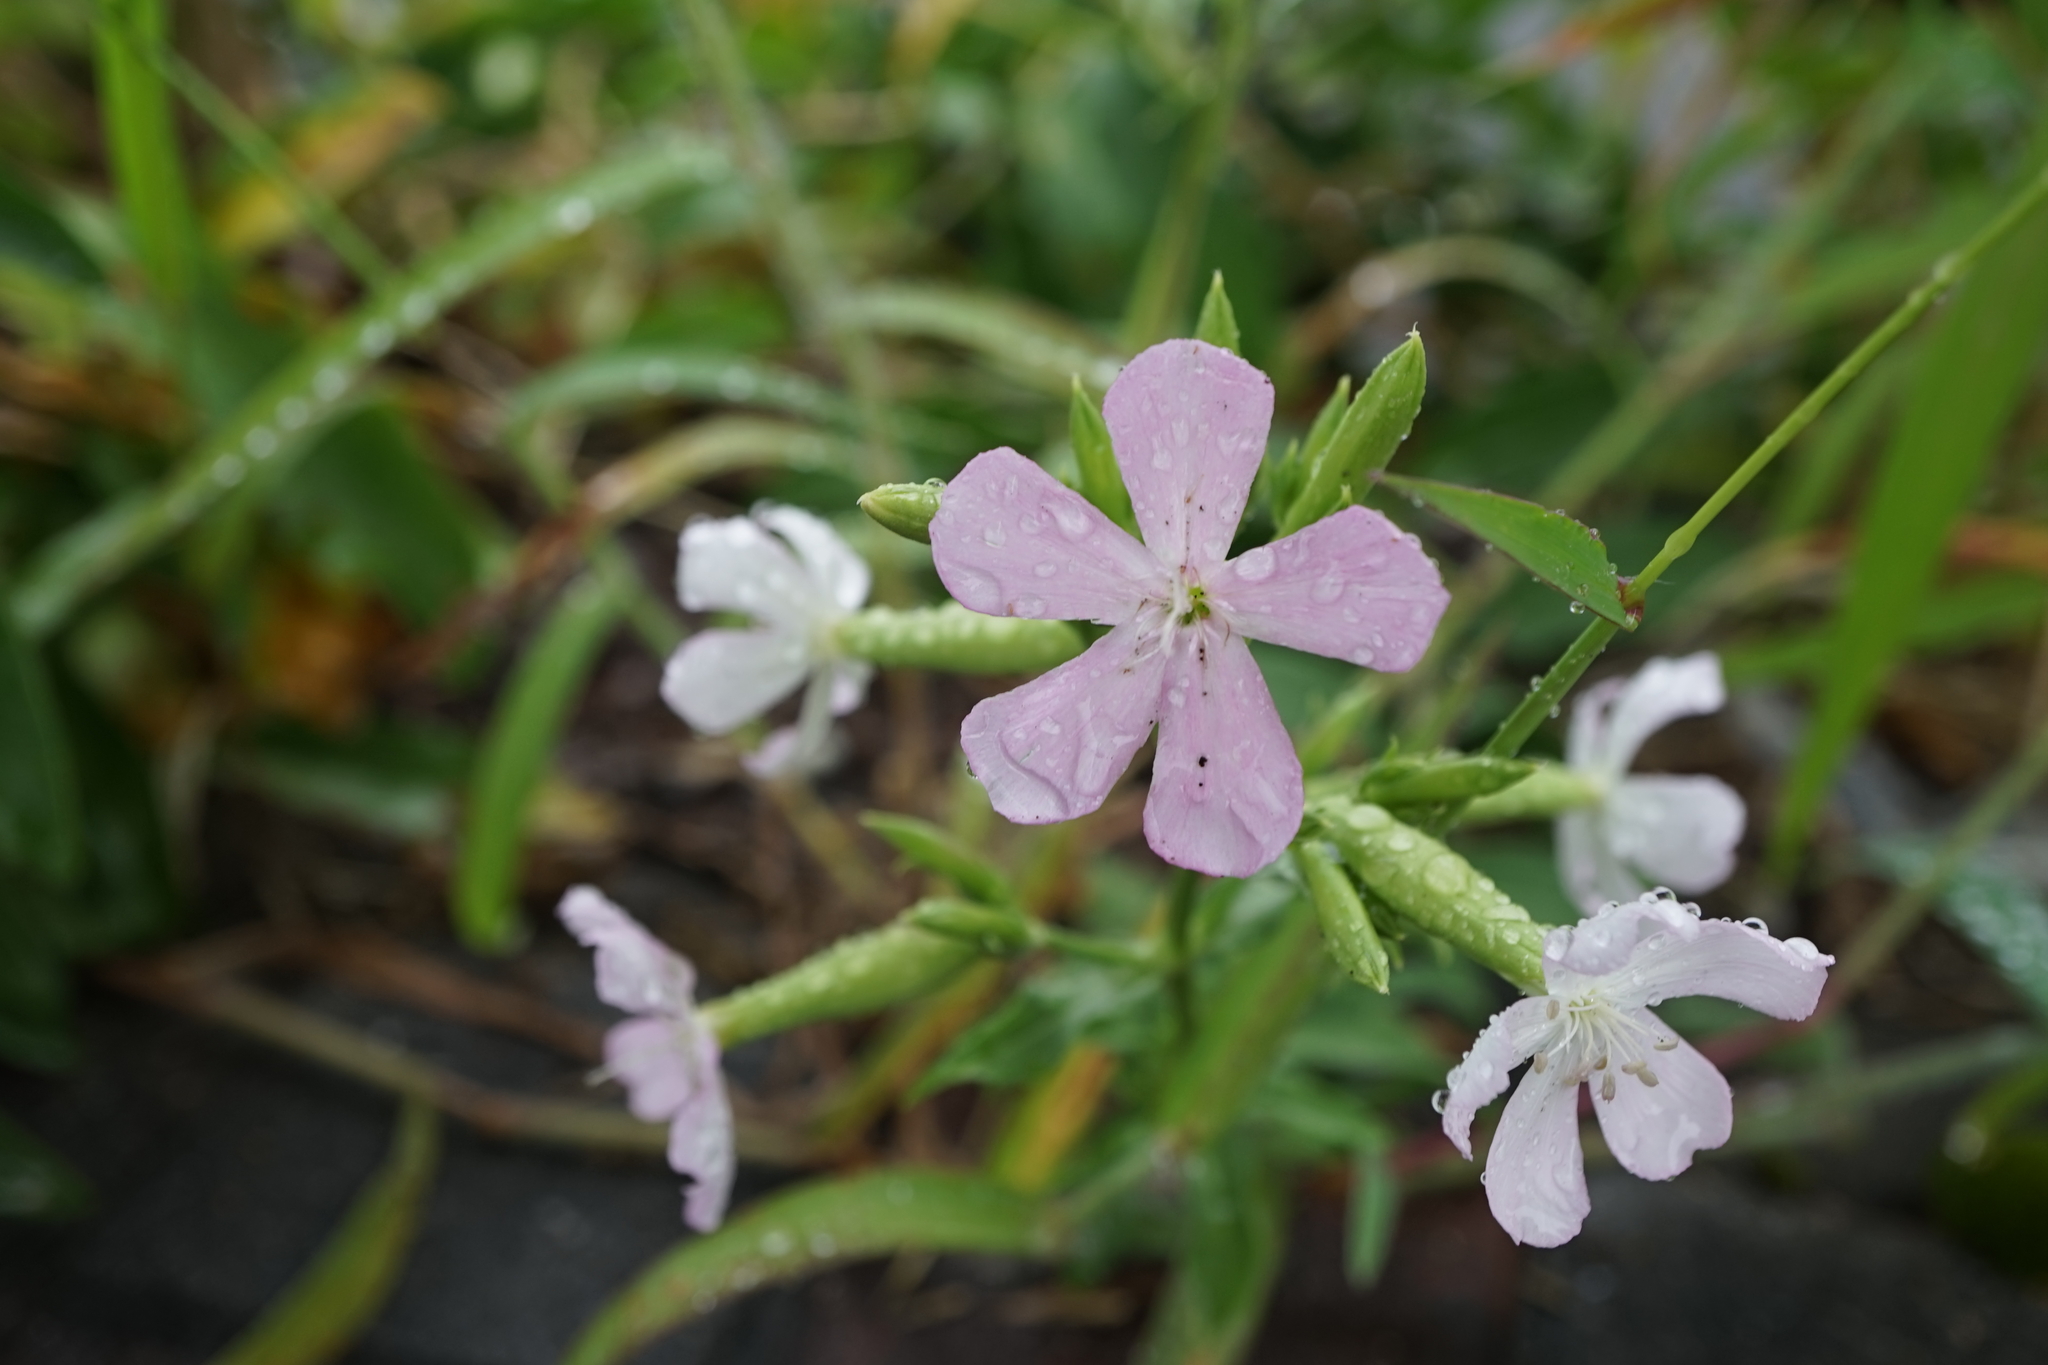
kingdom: Plantae
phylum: Tracheophyta
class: Magnoliopsida
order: Caryophyllales
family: Caryophyllaceae
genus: Saponaria
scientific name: Saponaria officinalis
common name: Soapwort
